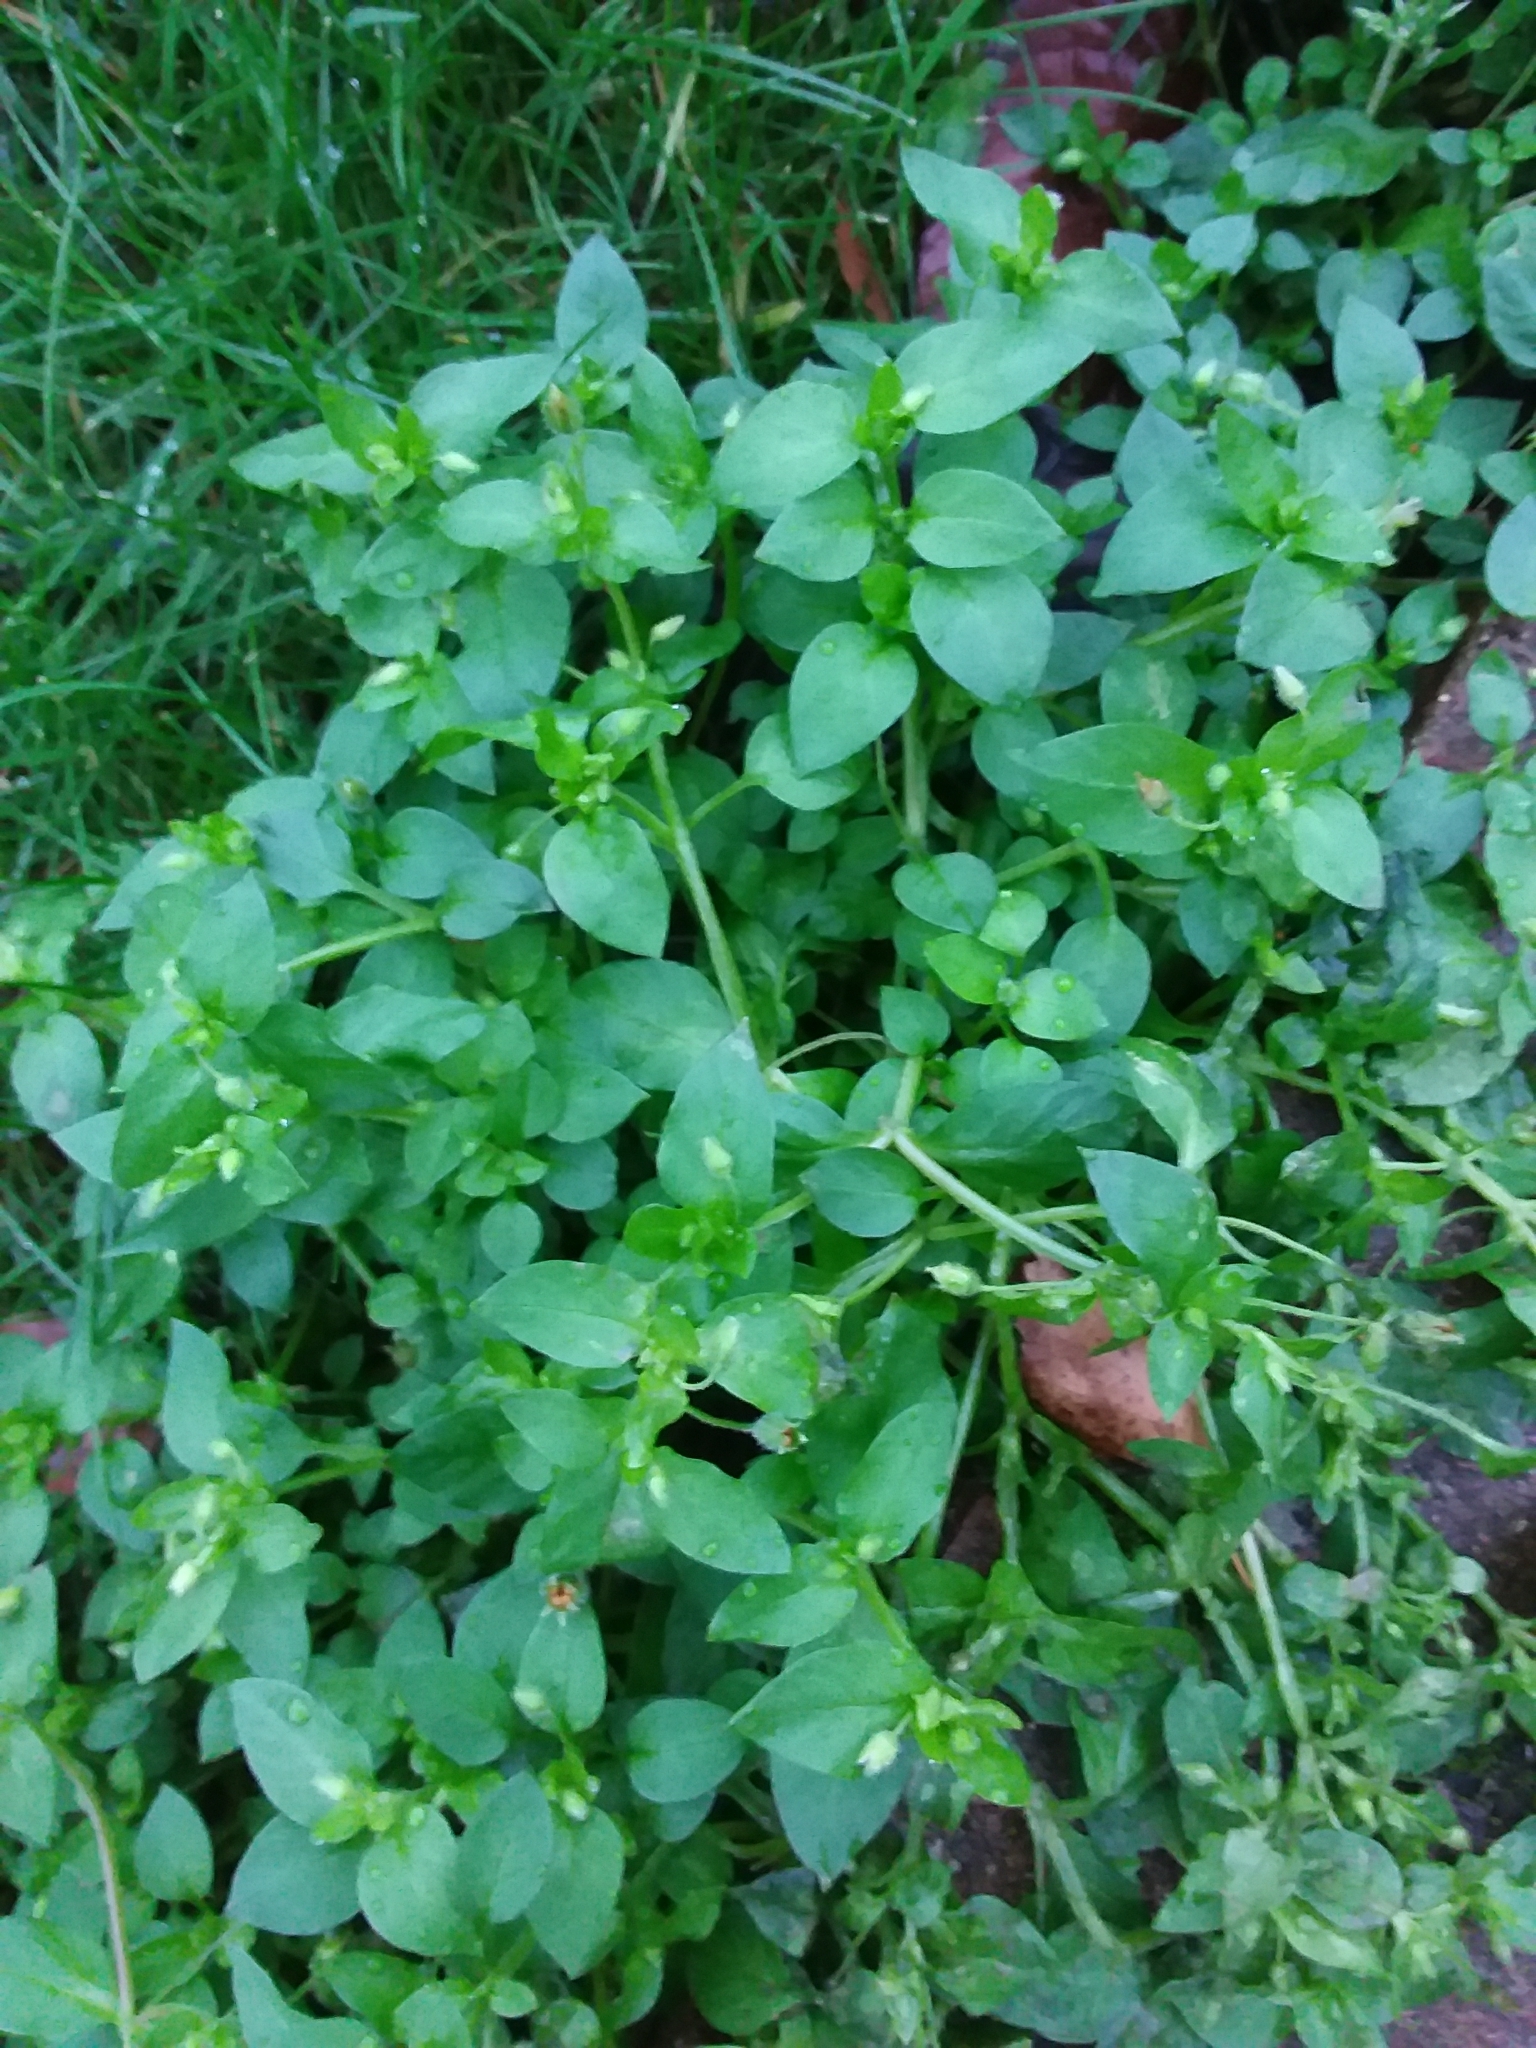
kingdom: Plantae
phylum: Tracheophyta
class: Magnoliopsida
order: Caryophyllales
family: Caryophyllaceae
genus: Stellaria
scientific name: Stellaria media
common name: Common chickweed
